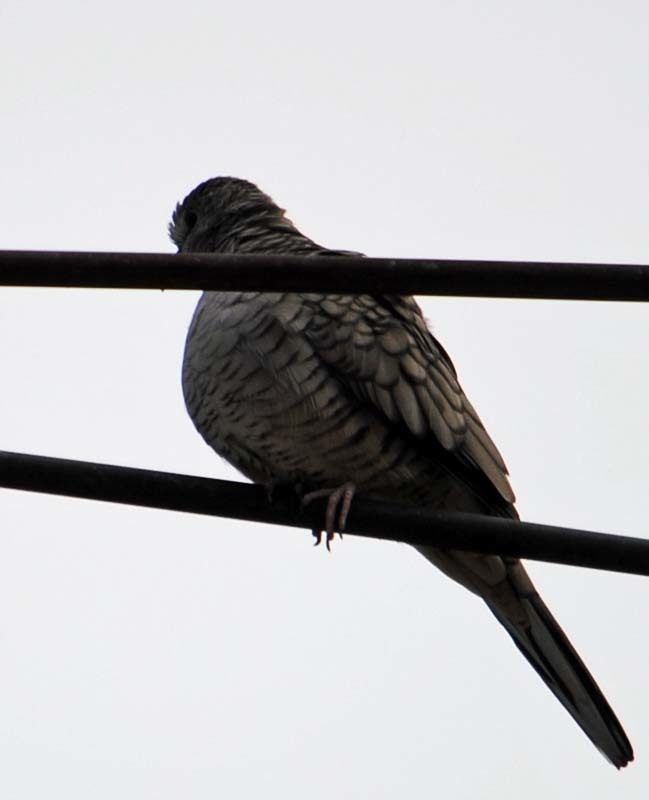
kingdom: Animalia
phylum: Chordata
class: Aves
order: Columbiformes
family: Columbidae
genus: Columbina
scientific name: Columbina inca
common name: Inca dove
